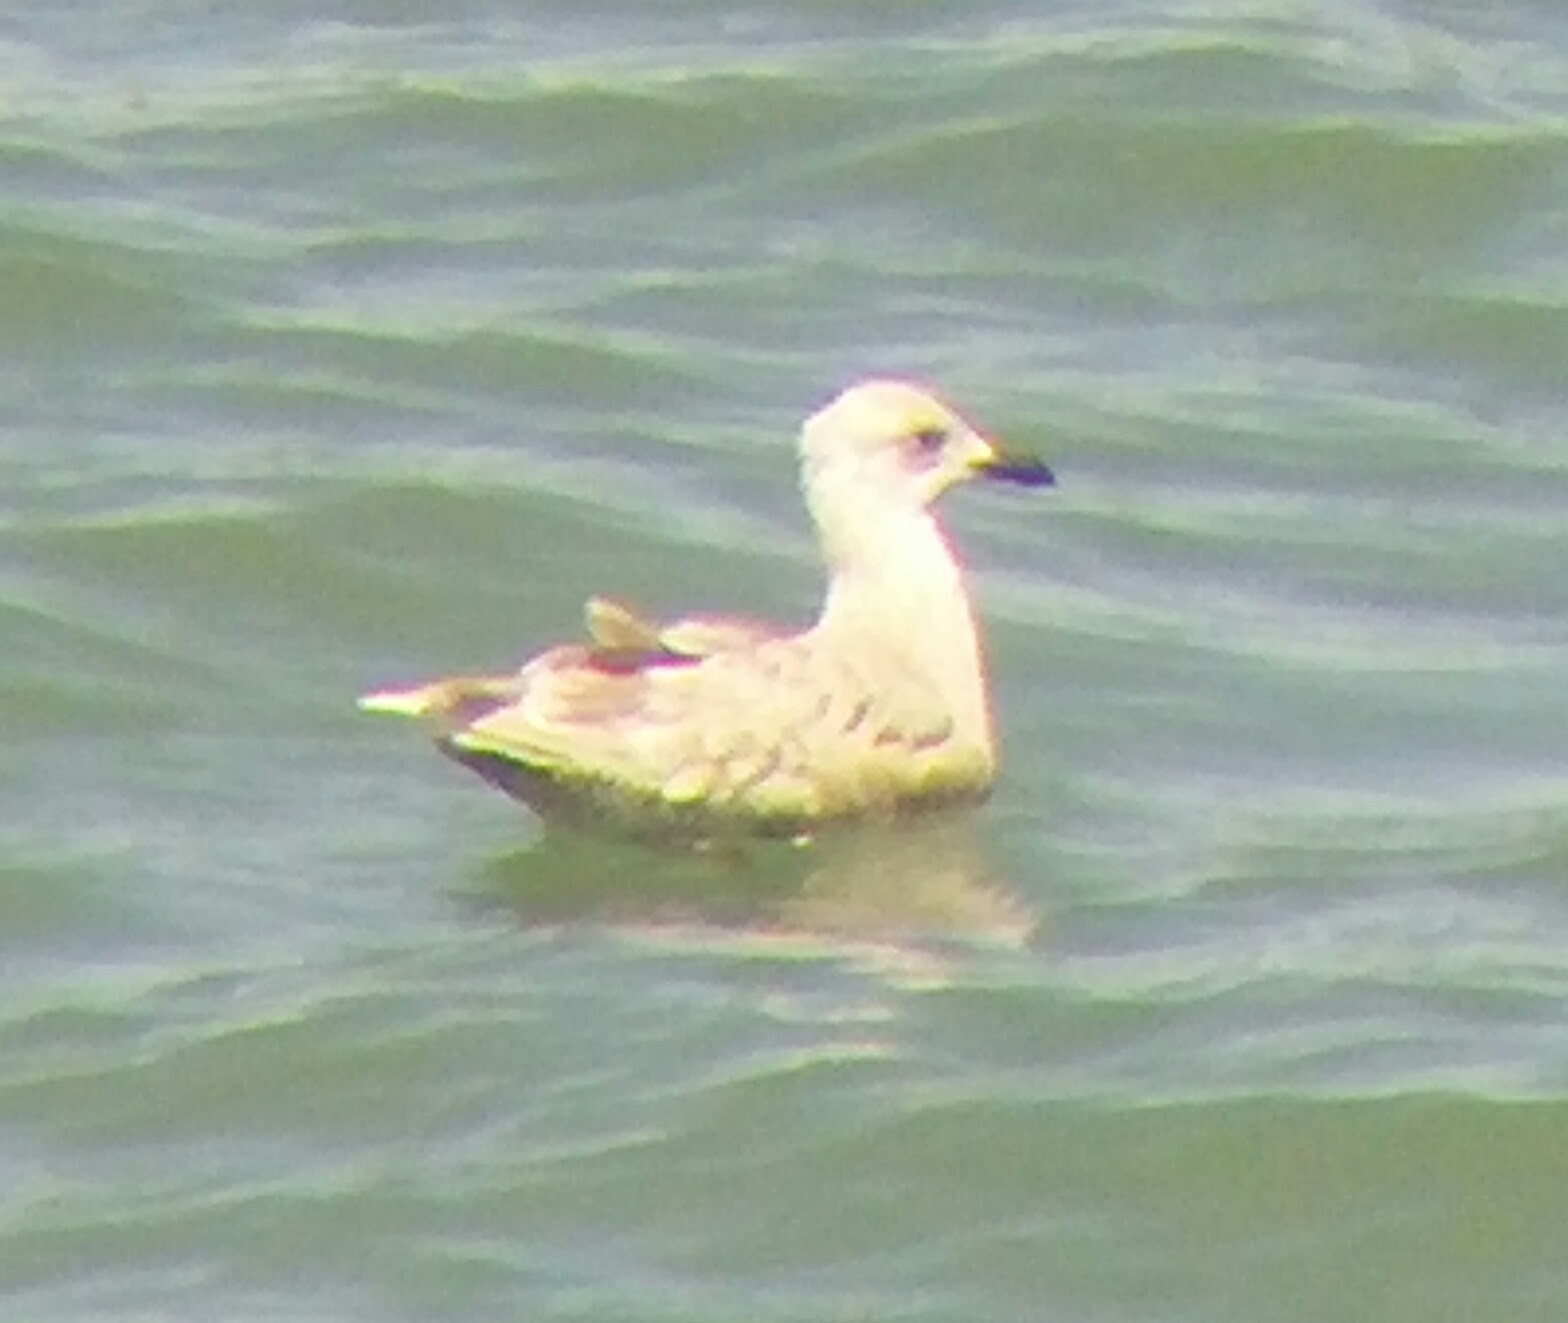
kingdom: Animalia
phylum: Chordata
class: Aves
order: Charadriiformes
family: Laridae
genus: Larus
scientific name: Larus glaucoides
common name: Iceland gull
